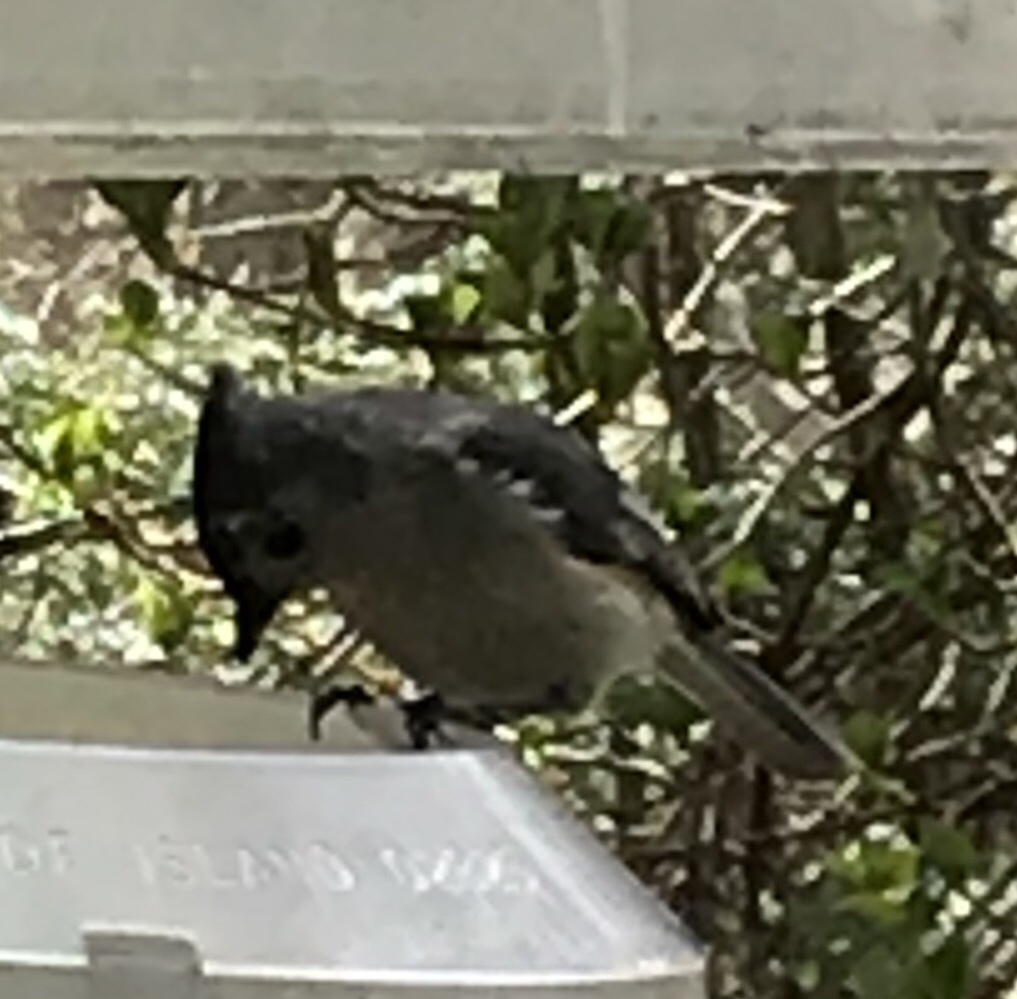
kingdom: Animalia
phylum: Chordata
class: Aves
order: Passeriformes
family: Paridae
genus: Baeolophus
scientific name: Baeolophus bicolor
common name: Tufted titmouse
